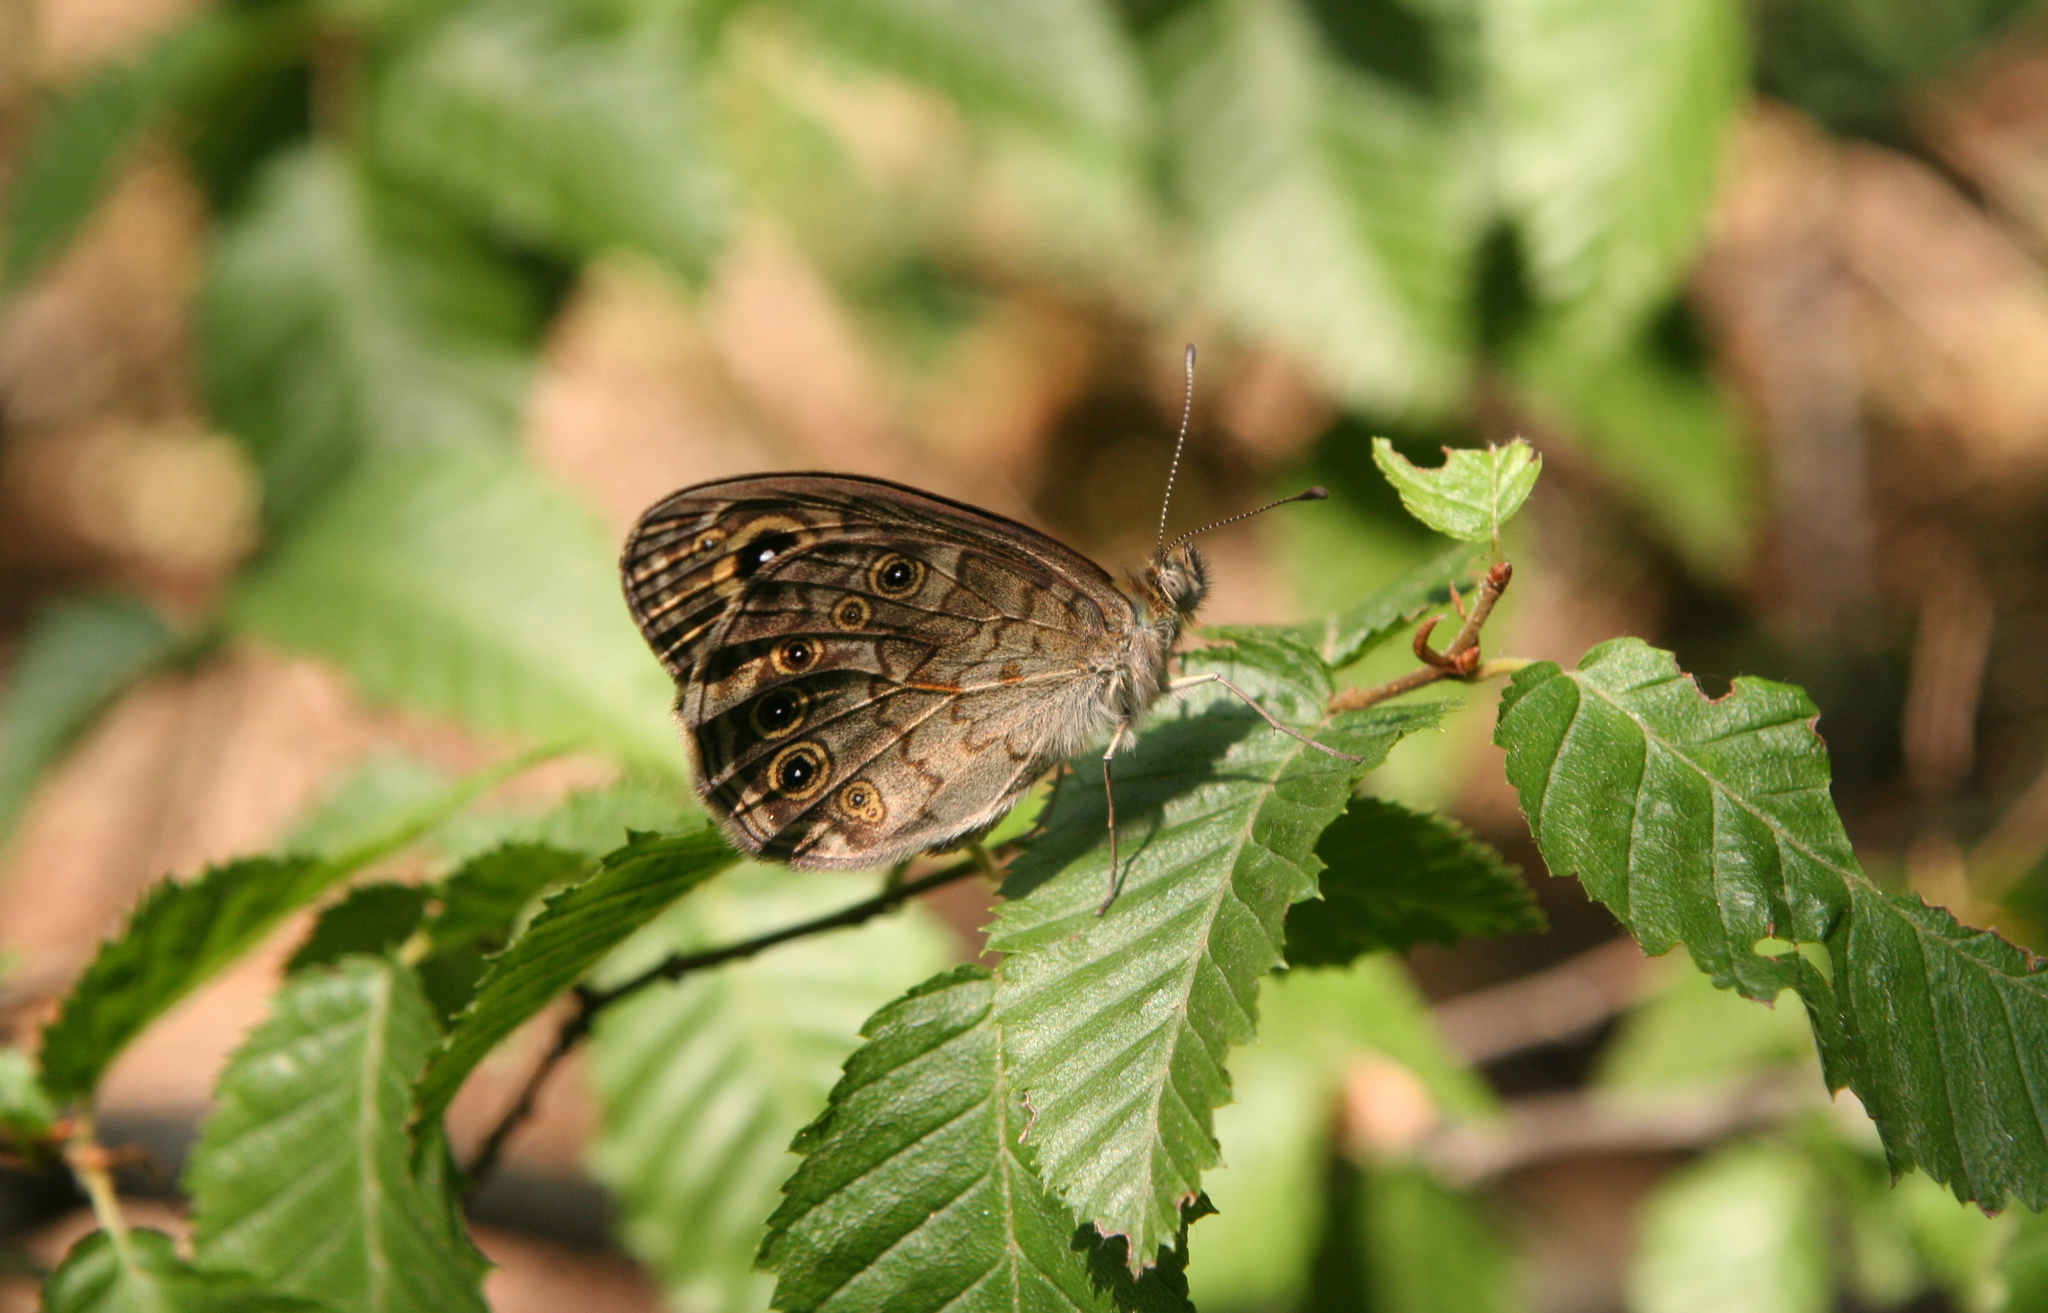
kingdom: Plantae
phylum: Tracheophyta
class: Magnoliopsida
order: Fagales
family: Betulaceae
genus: Carpinus
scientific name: Carpinus orientalis
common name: Eastern hornbeam
